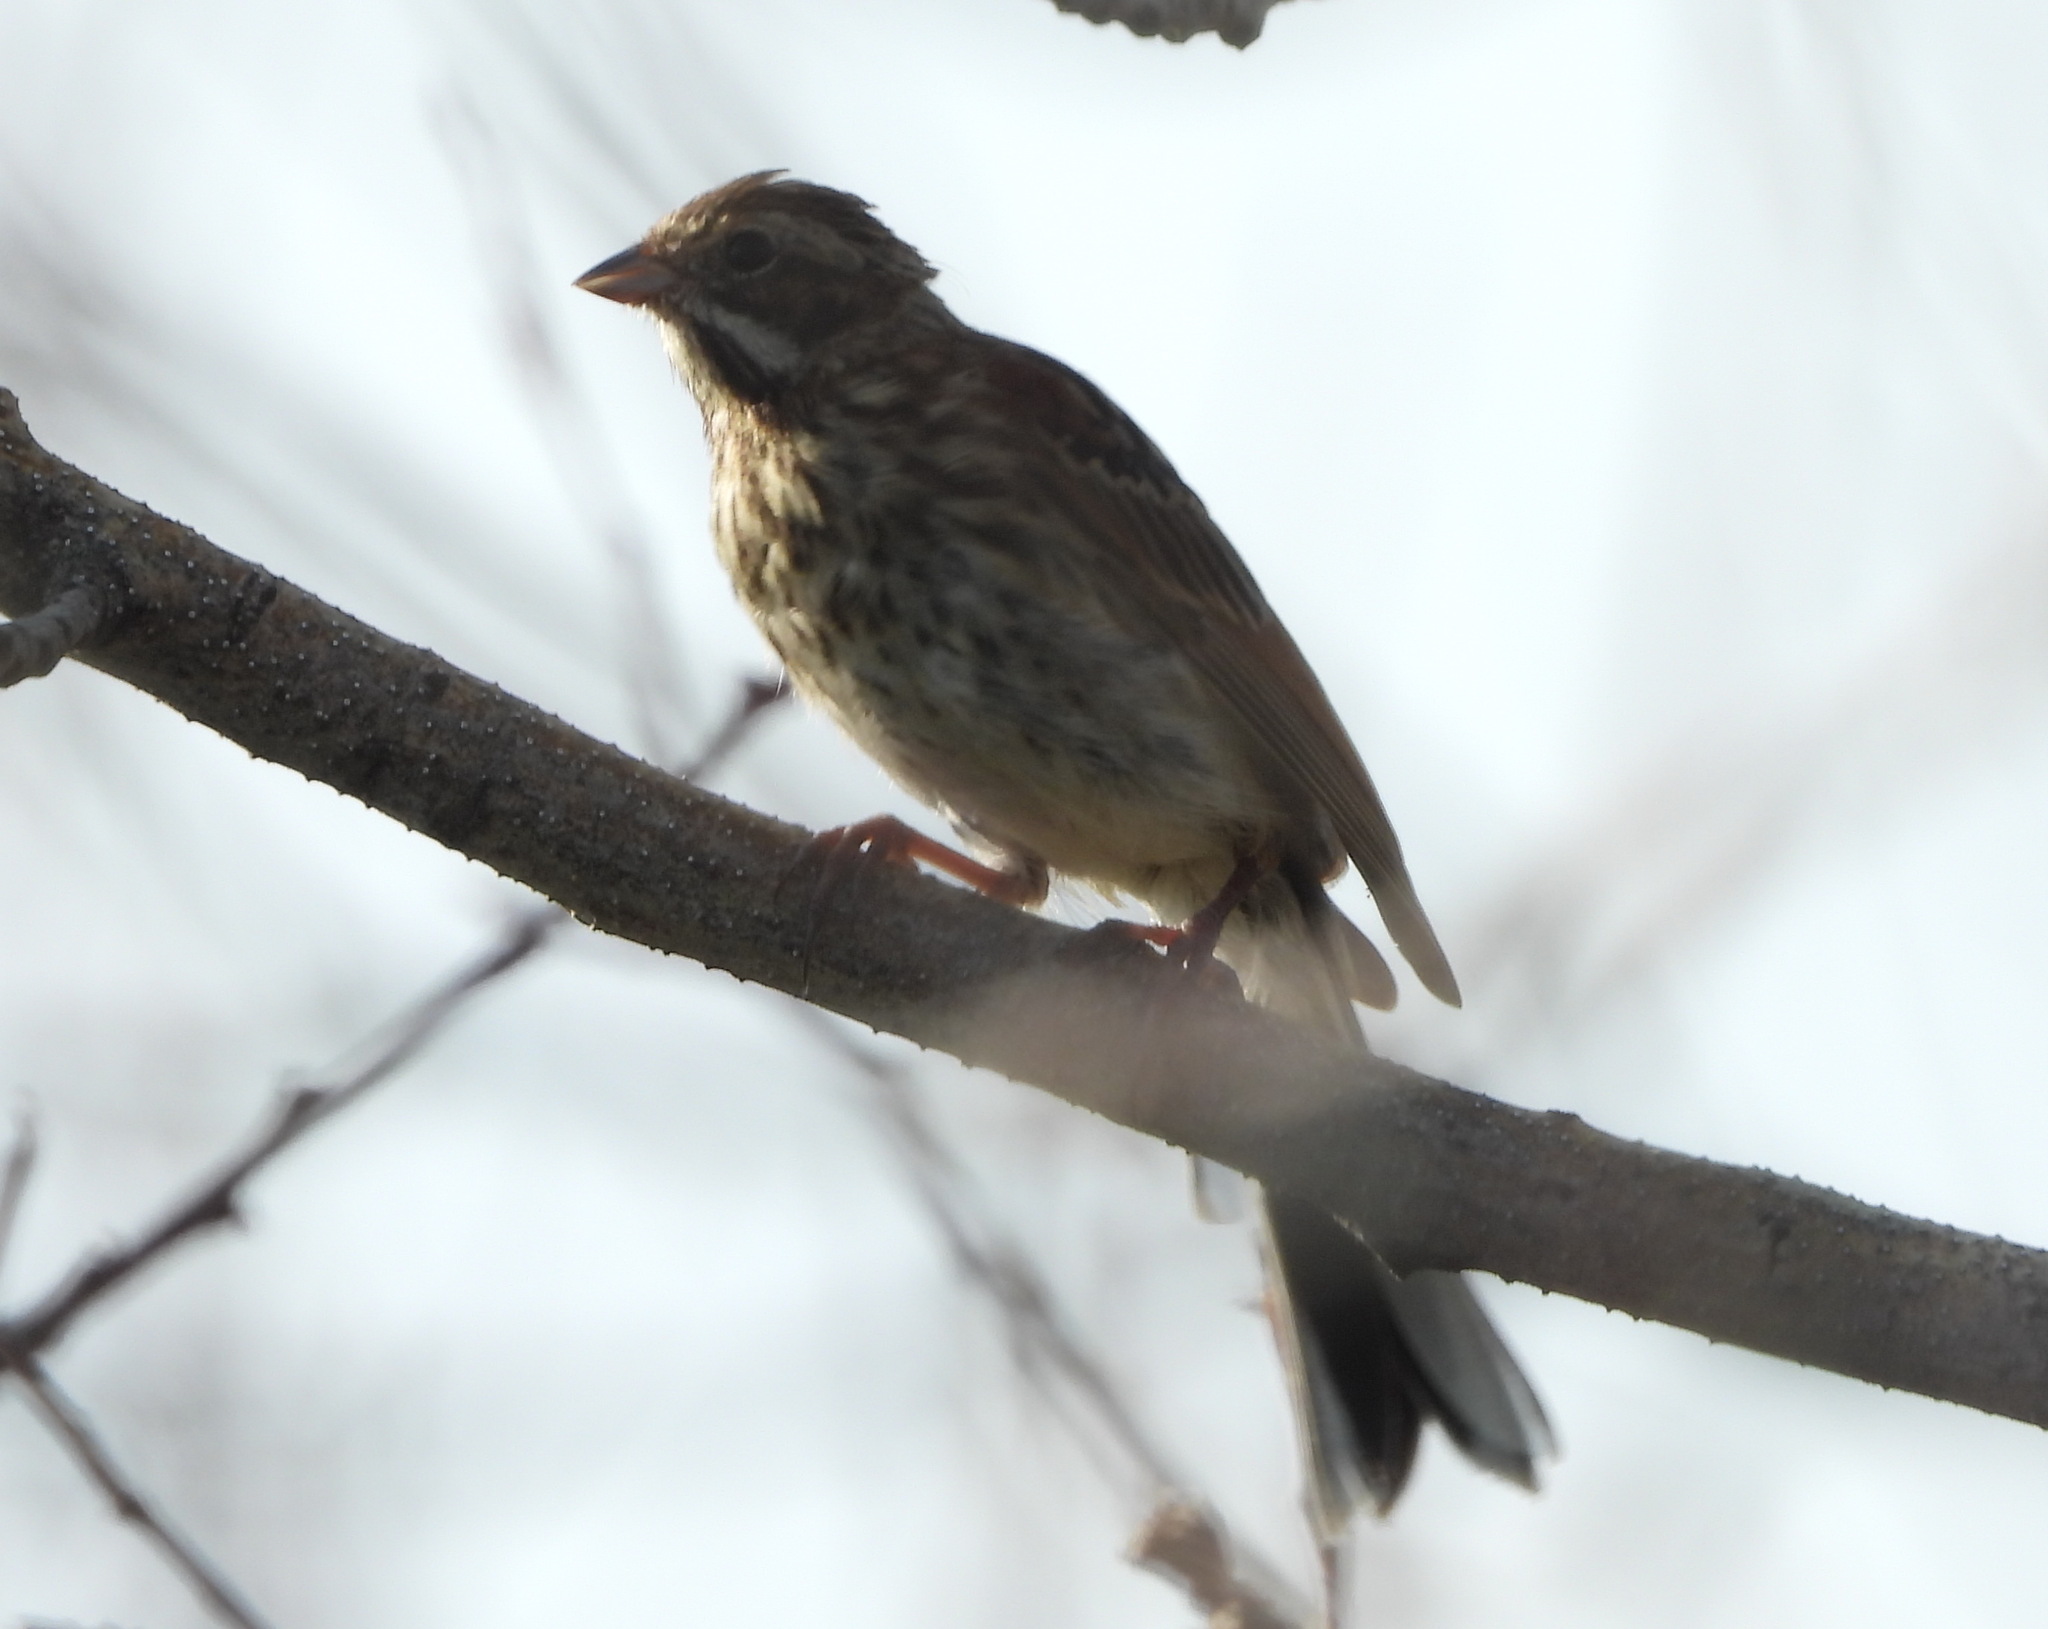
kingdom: Animalia
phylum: Chordata
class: Aves
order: Passeriformes
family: Emberizidae
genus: Emberiza
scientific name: Emberiza schoeniclus
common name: Reed bunting
